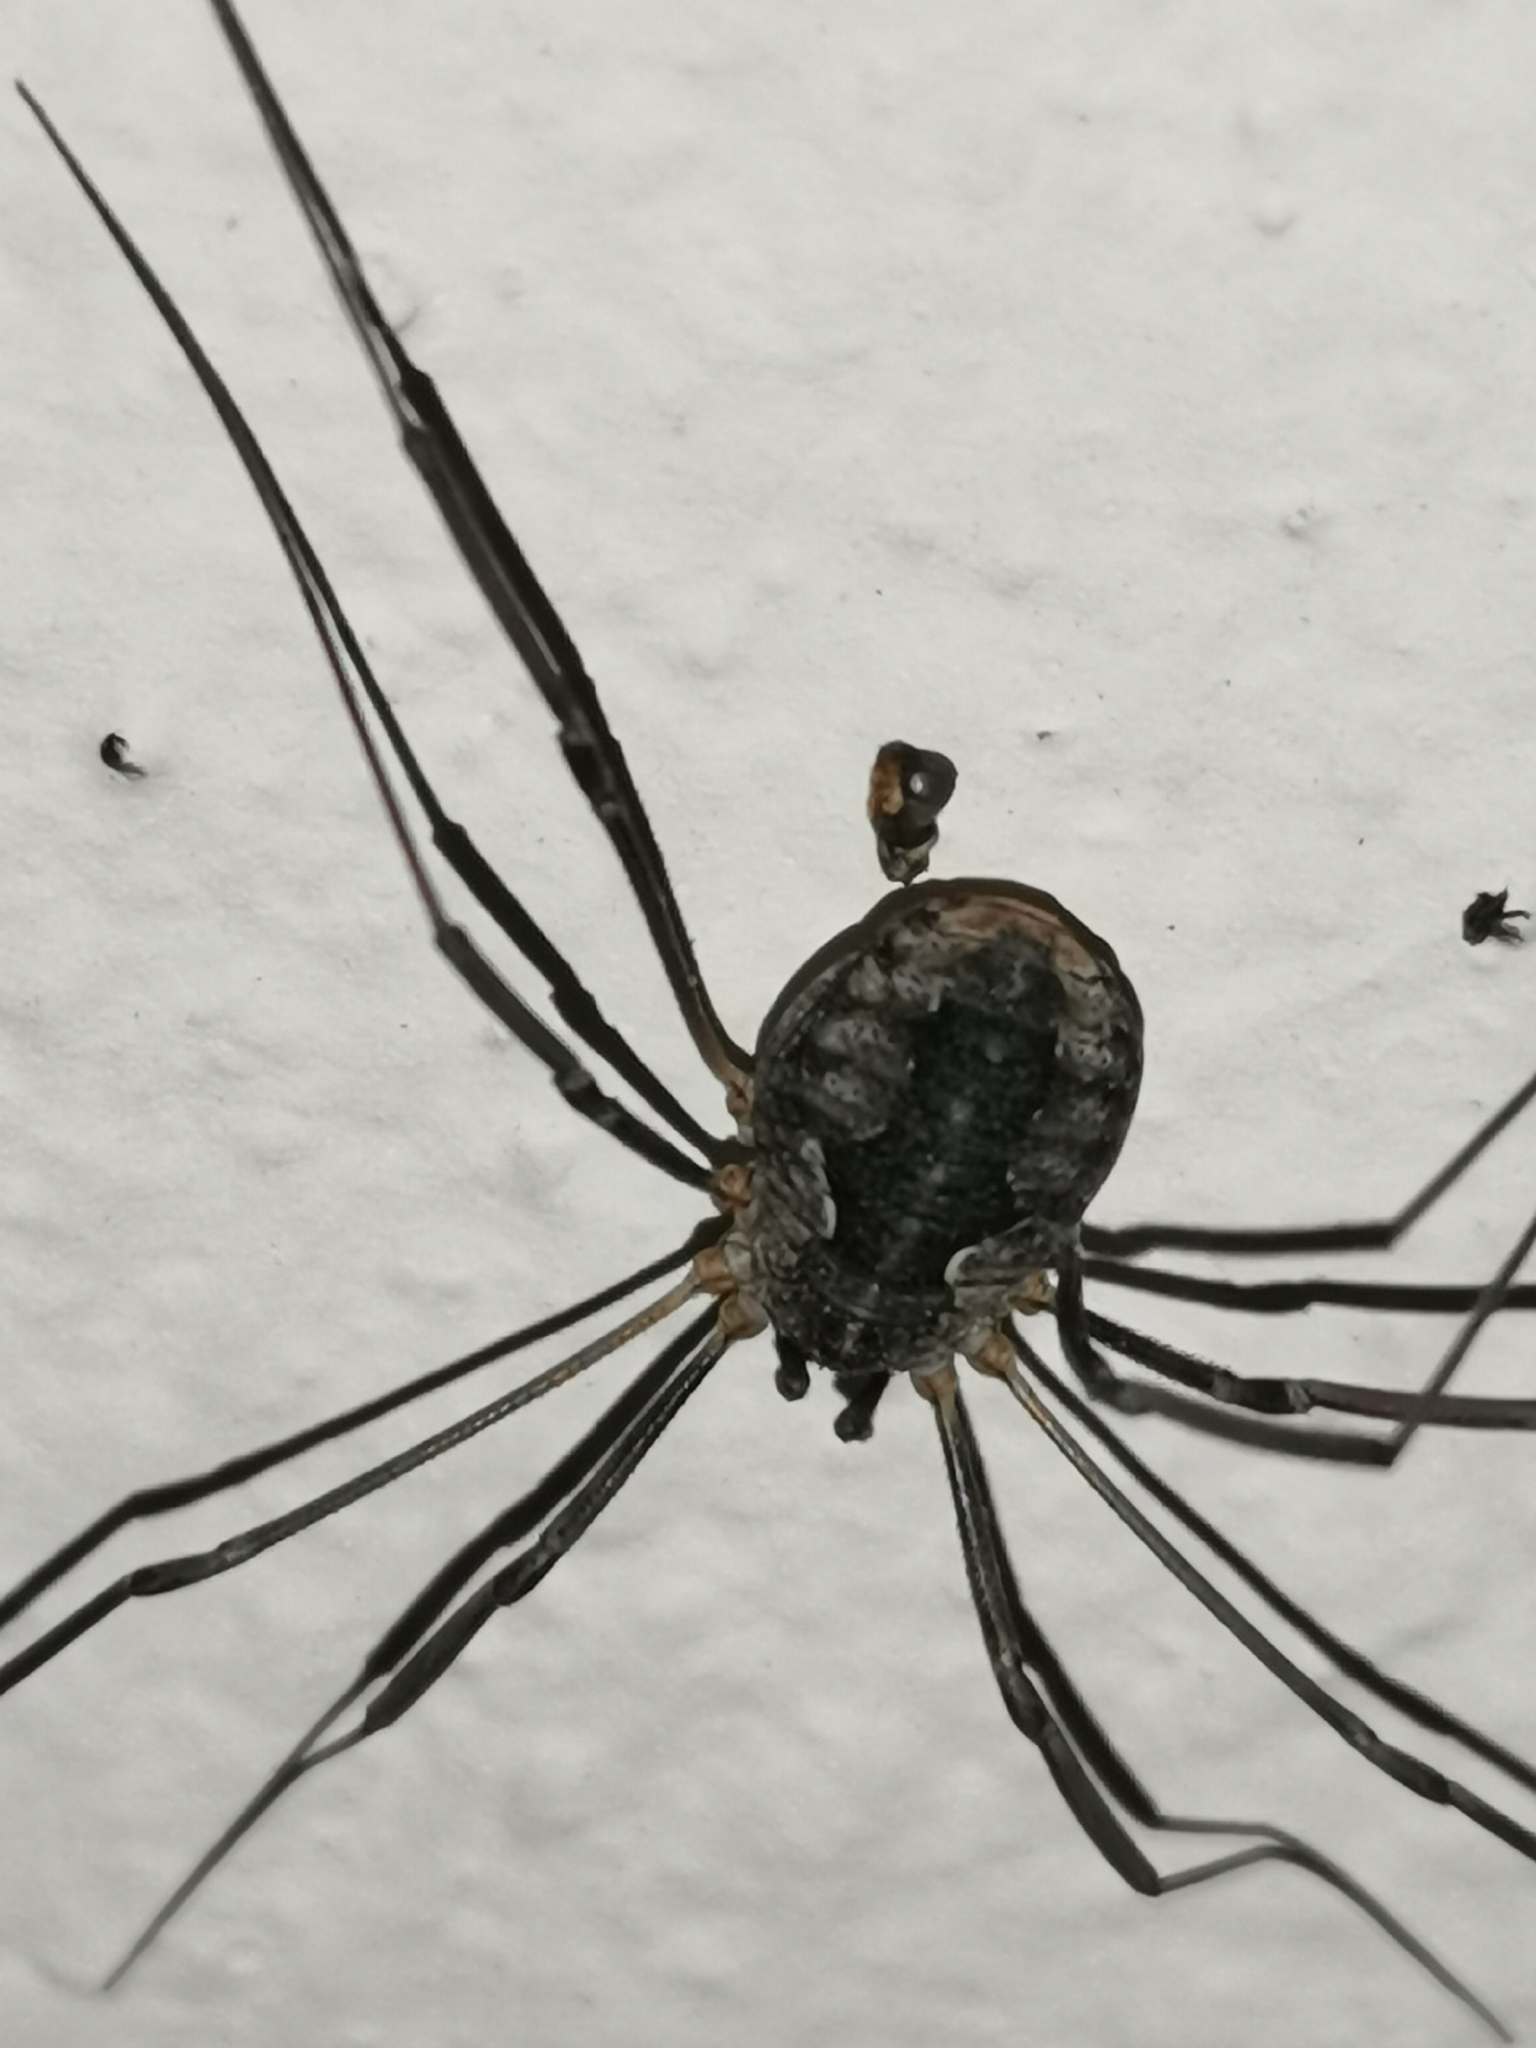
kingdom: Animalia
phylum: Arthropoda
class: Arachnida
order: Opiliones
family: Phalangiidae
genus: Phalangium
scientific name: Phalangium opilio
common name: Daddy longleg
